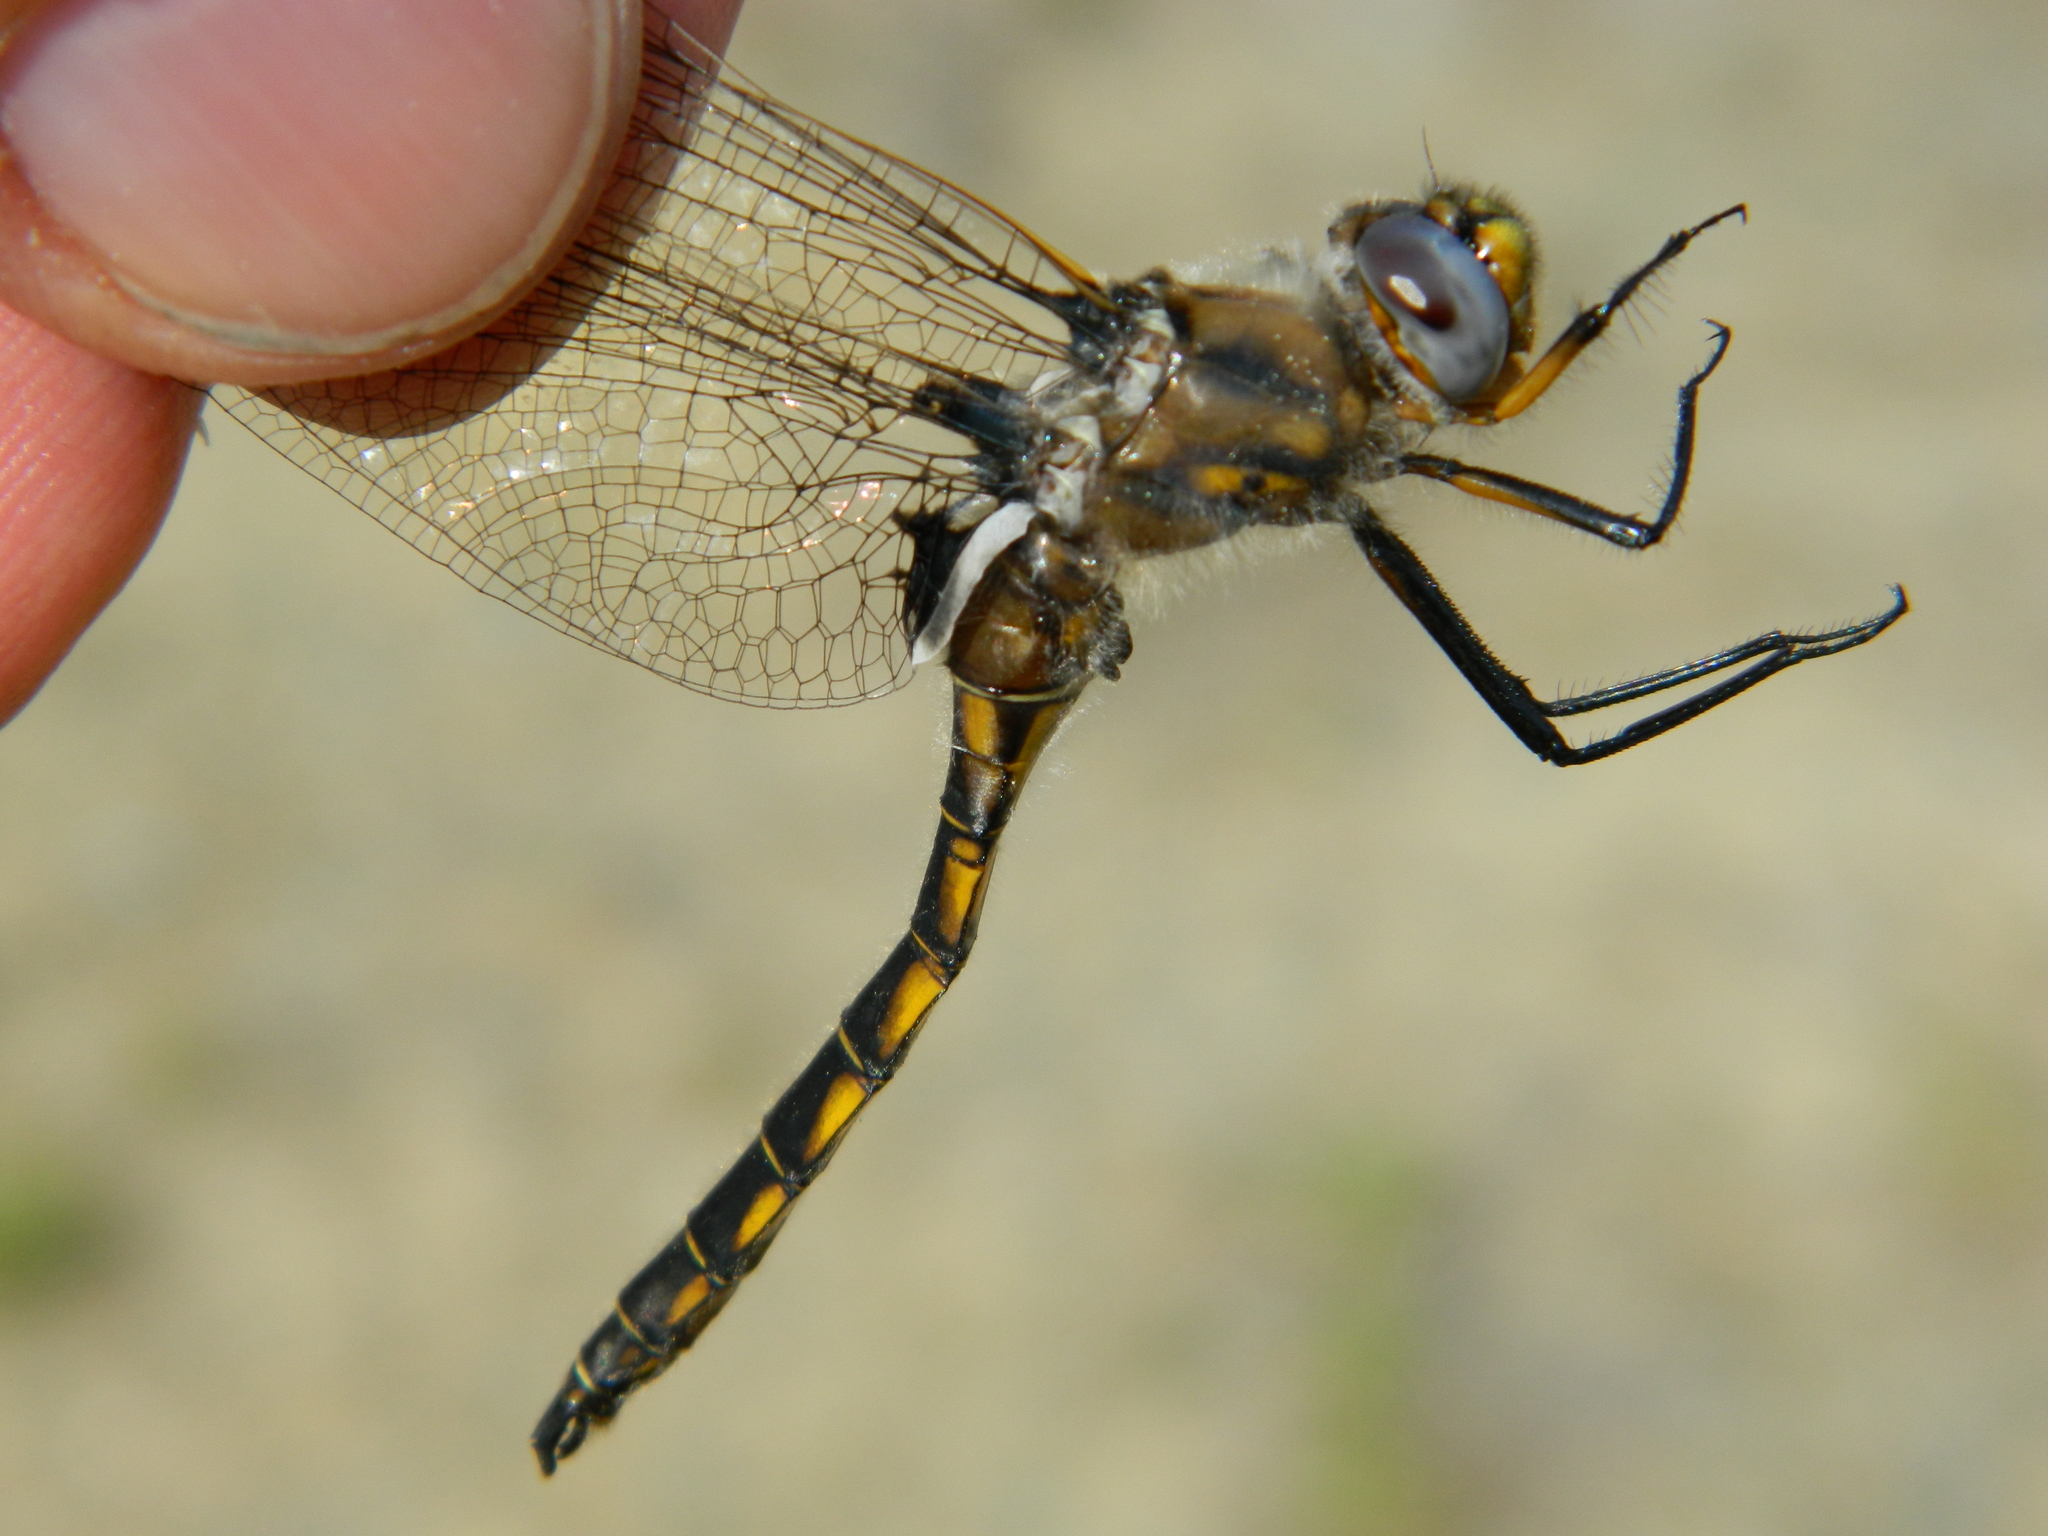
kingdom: Animalia
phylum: Arthropoda
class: Insecta
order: Odonata
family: Corduliidae
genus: Epitheca
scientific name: Epitheca canis
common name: Beaverpond baskettail
